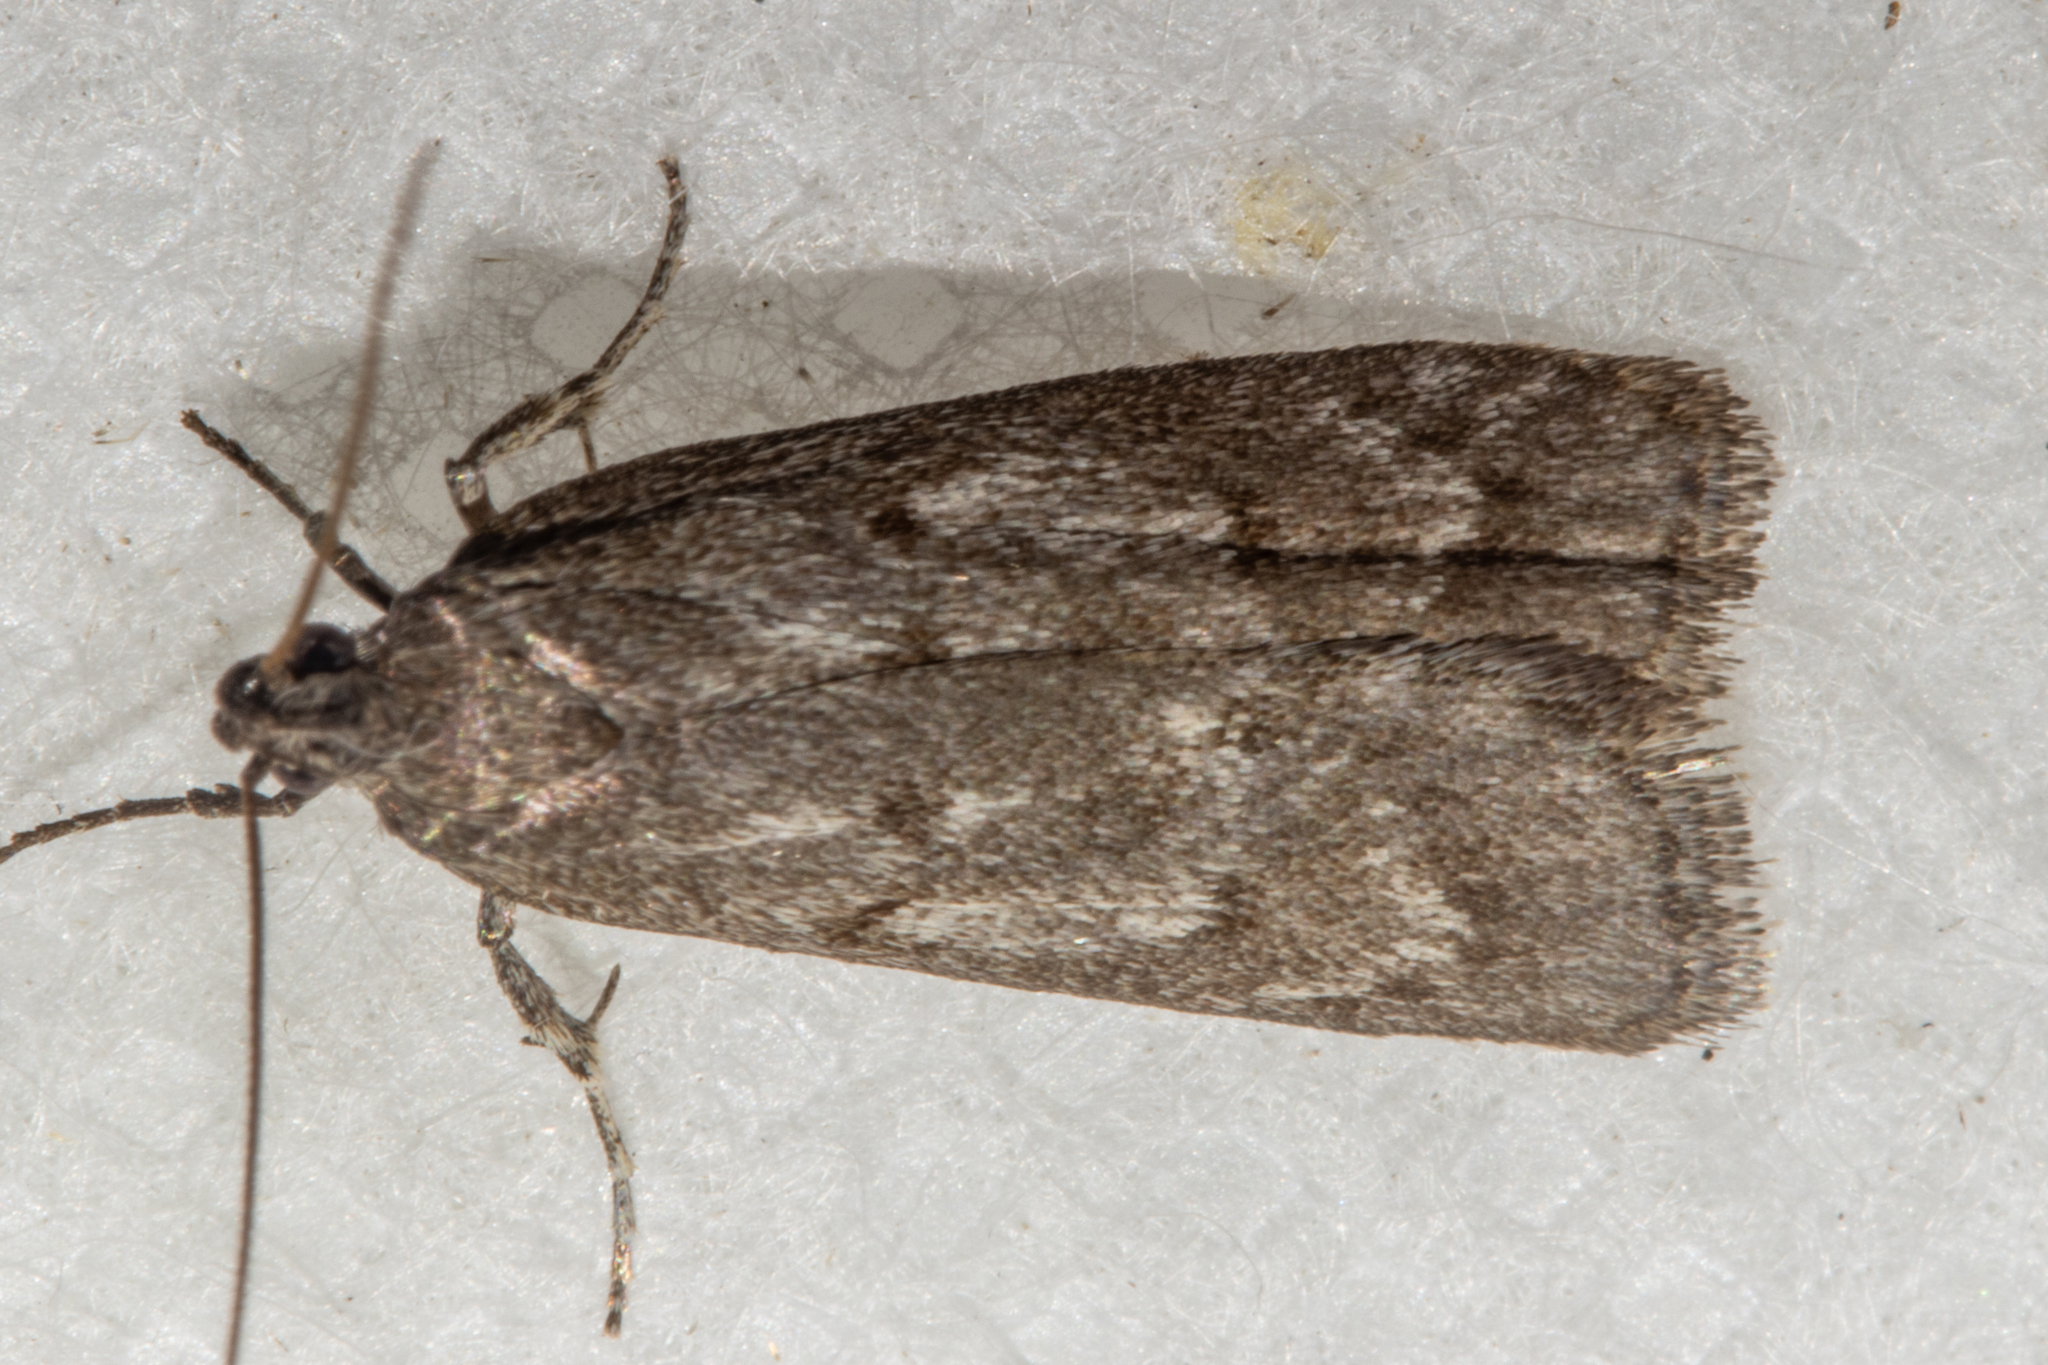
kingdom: Animalia
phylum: Arthropoda
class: Insecta
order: Lepidoptera
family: Depressariidae
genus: Phaeosaces
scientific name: Phaeosaces apocrypta
